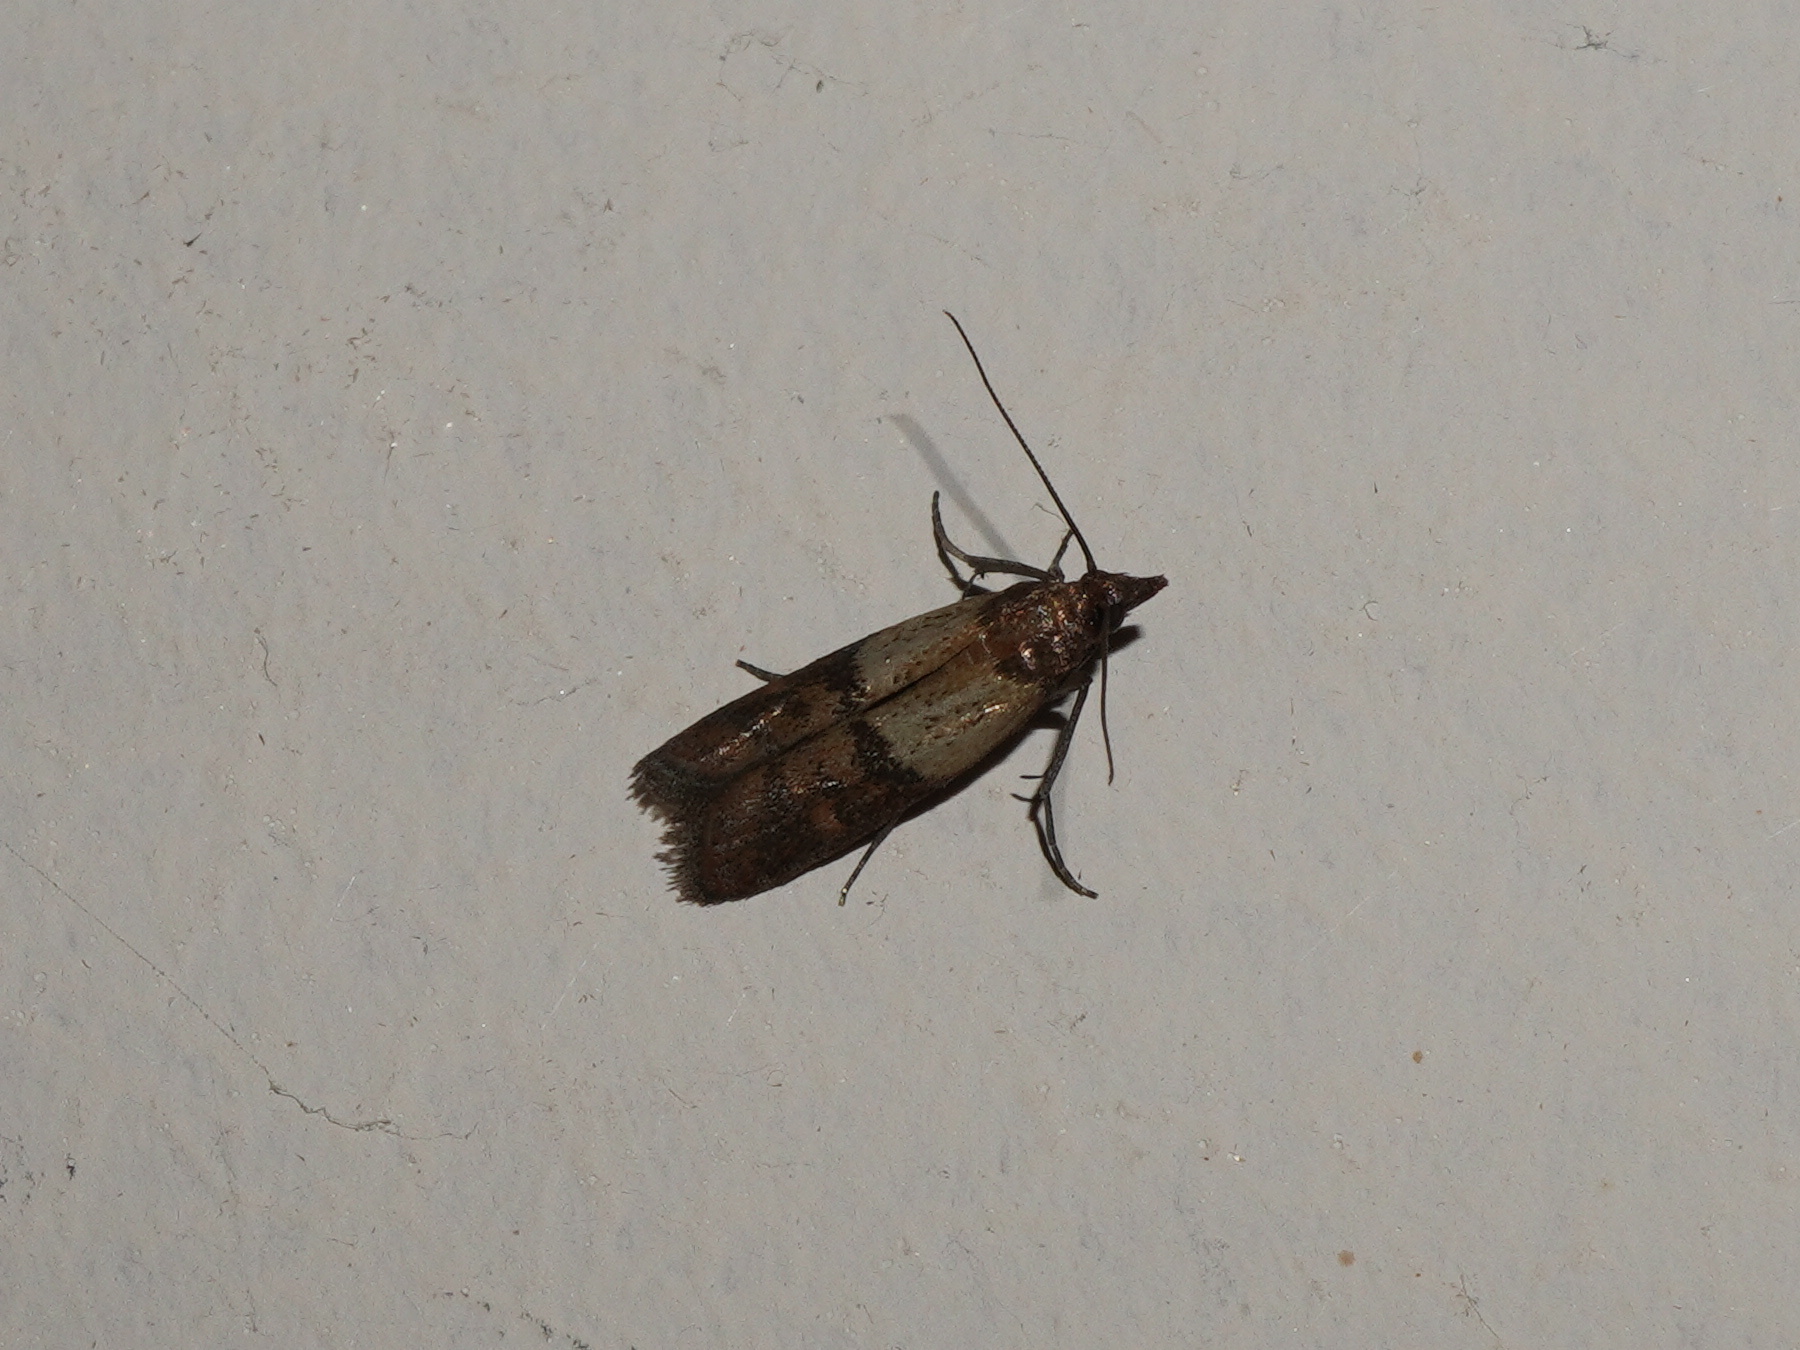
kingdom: Animalia
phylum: Arthropoda
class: Insecta
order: Lepidoptera
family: Pyralidae
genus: Plodia
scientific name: Plodia interpunctella
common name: Indian meal moth
